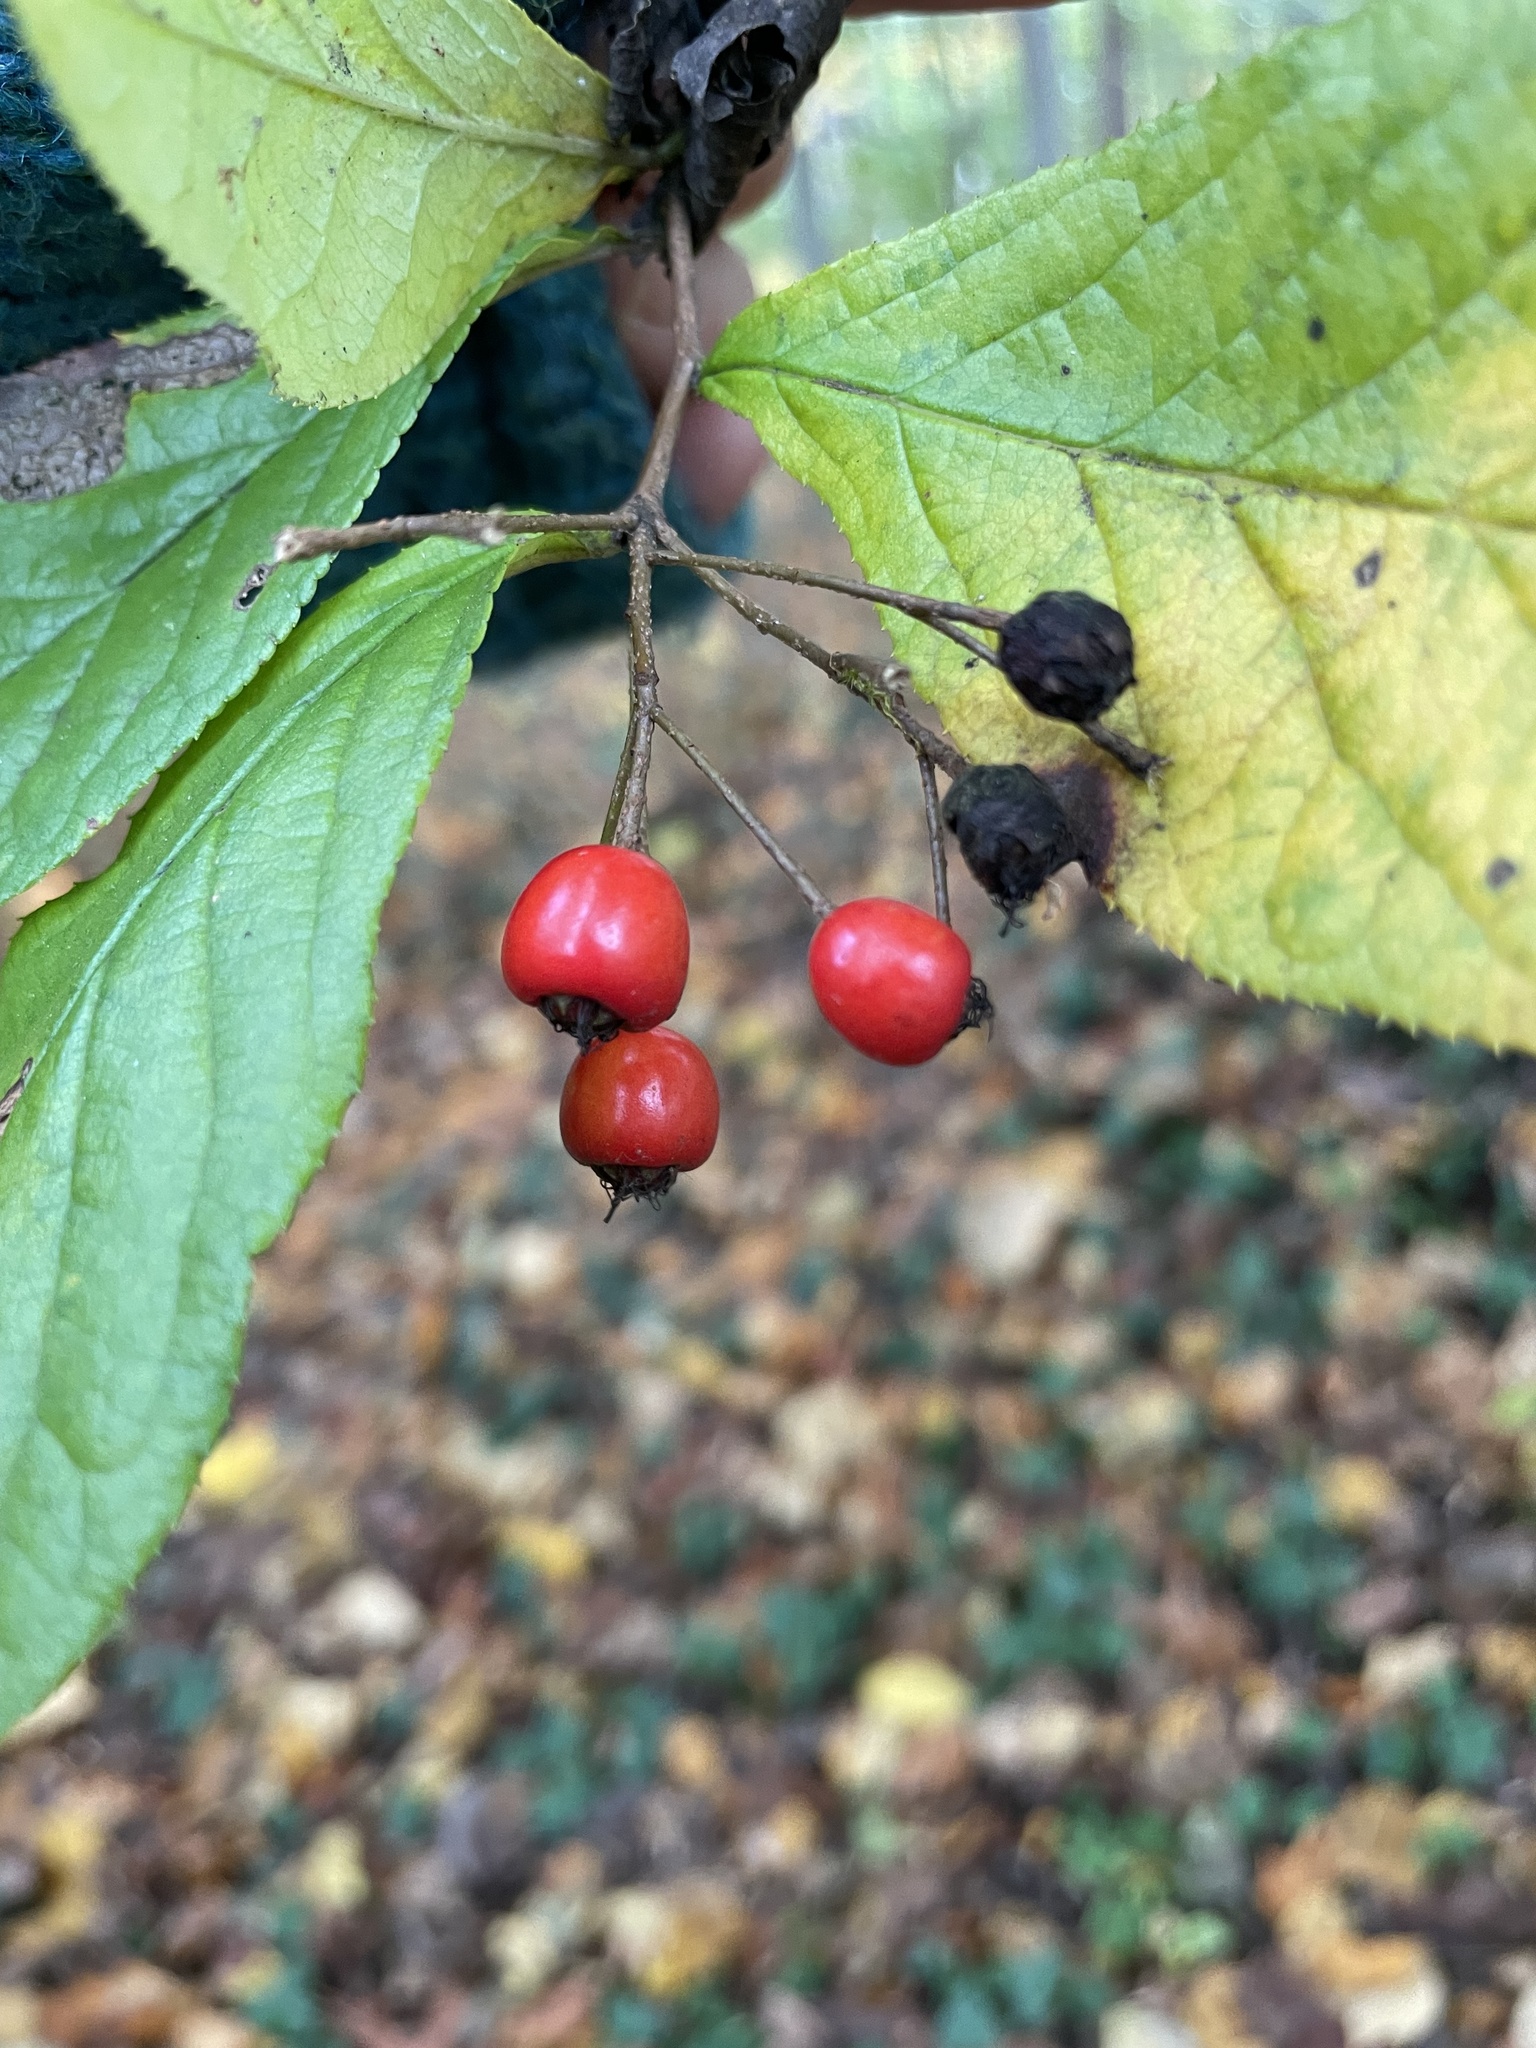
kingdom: Plantae
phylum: Tracheophyta
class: Magnoliopsida
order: Rosales
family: Rosaceae
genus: Pourthiaea
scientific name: Pourthiaea villosa
